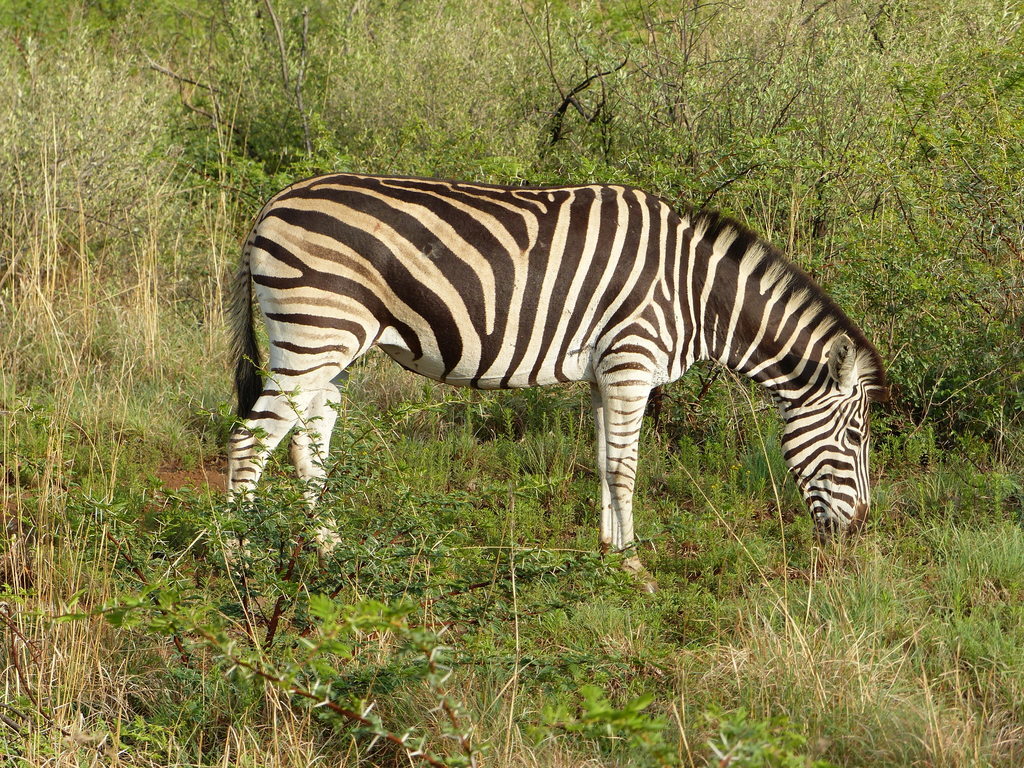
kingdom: Animalia
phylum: Chordata
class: Mammalia
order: Perissodactyla
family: Equidae
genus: Equus
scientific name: Equus quagga
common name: Plains zebra
